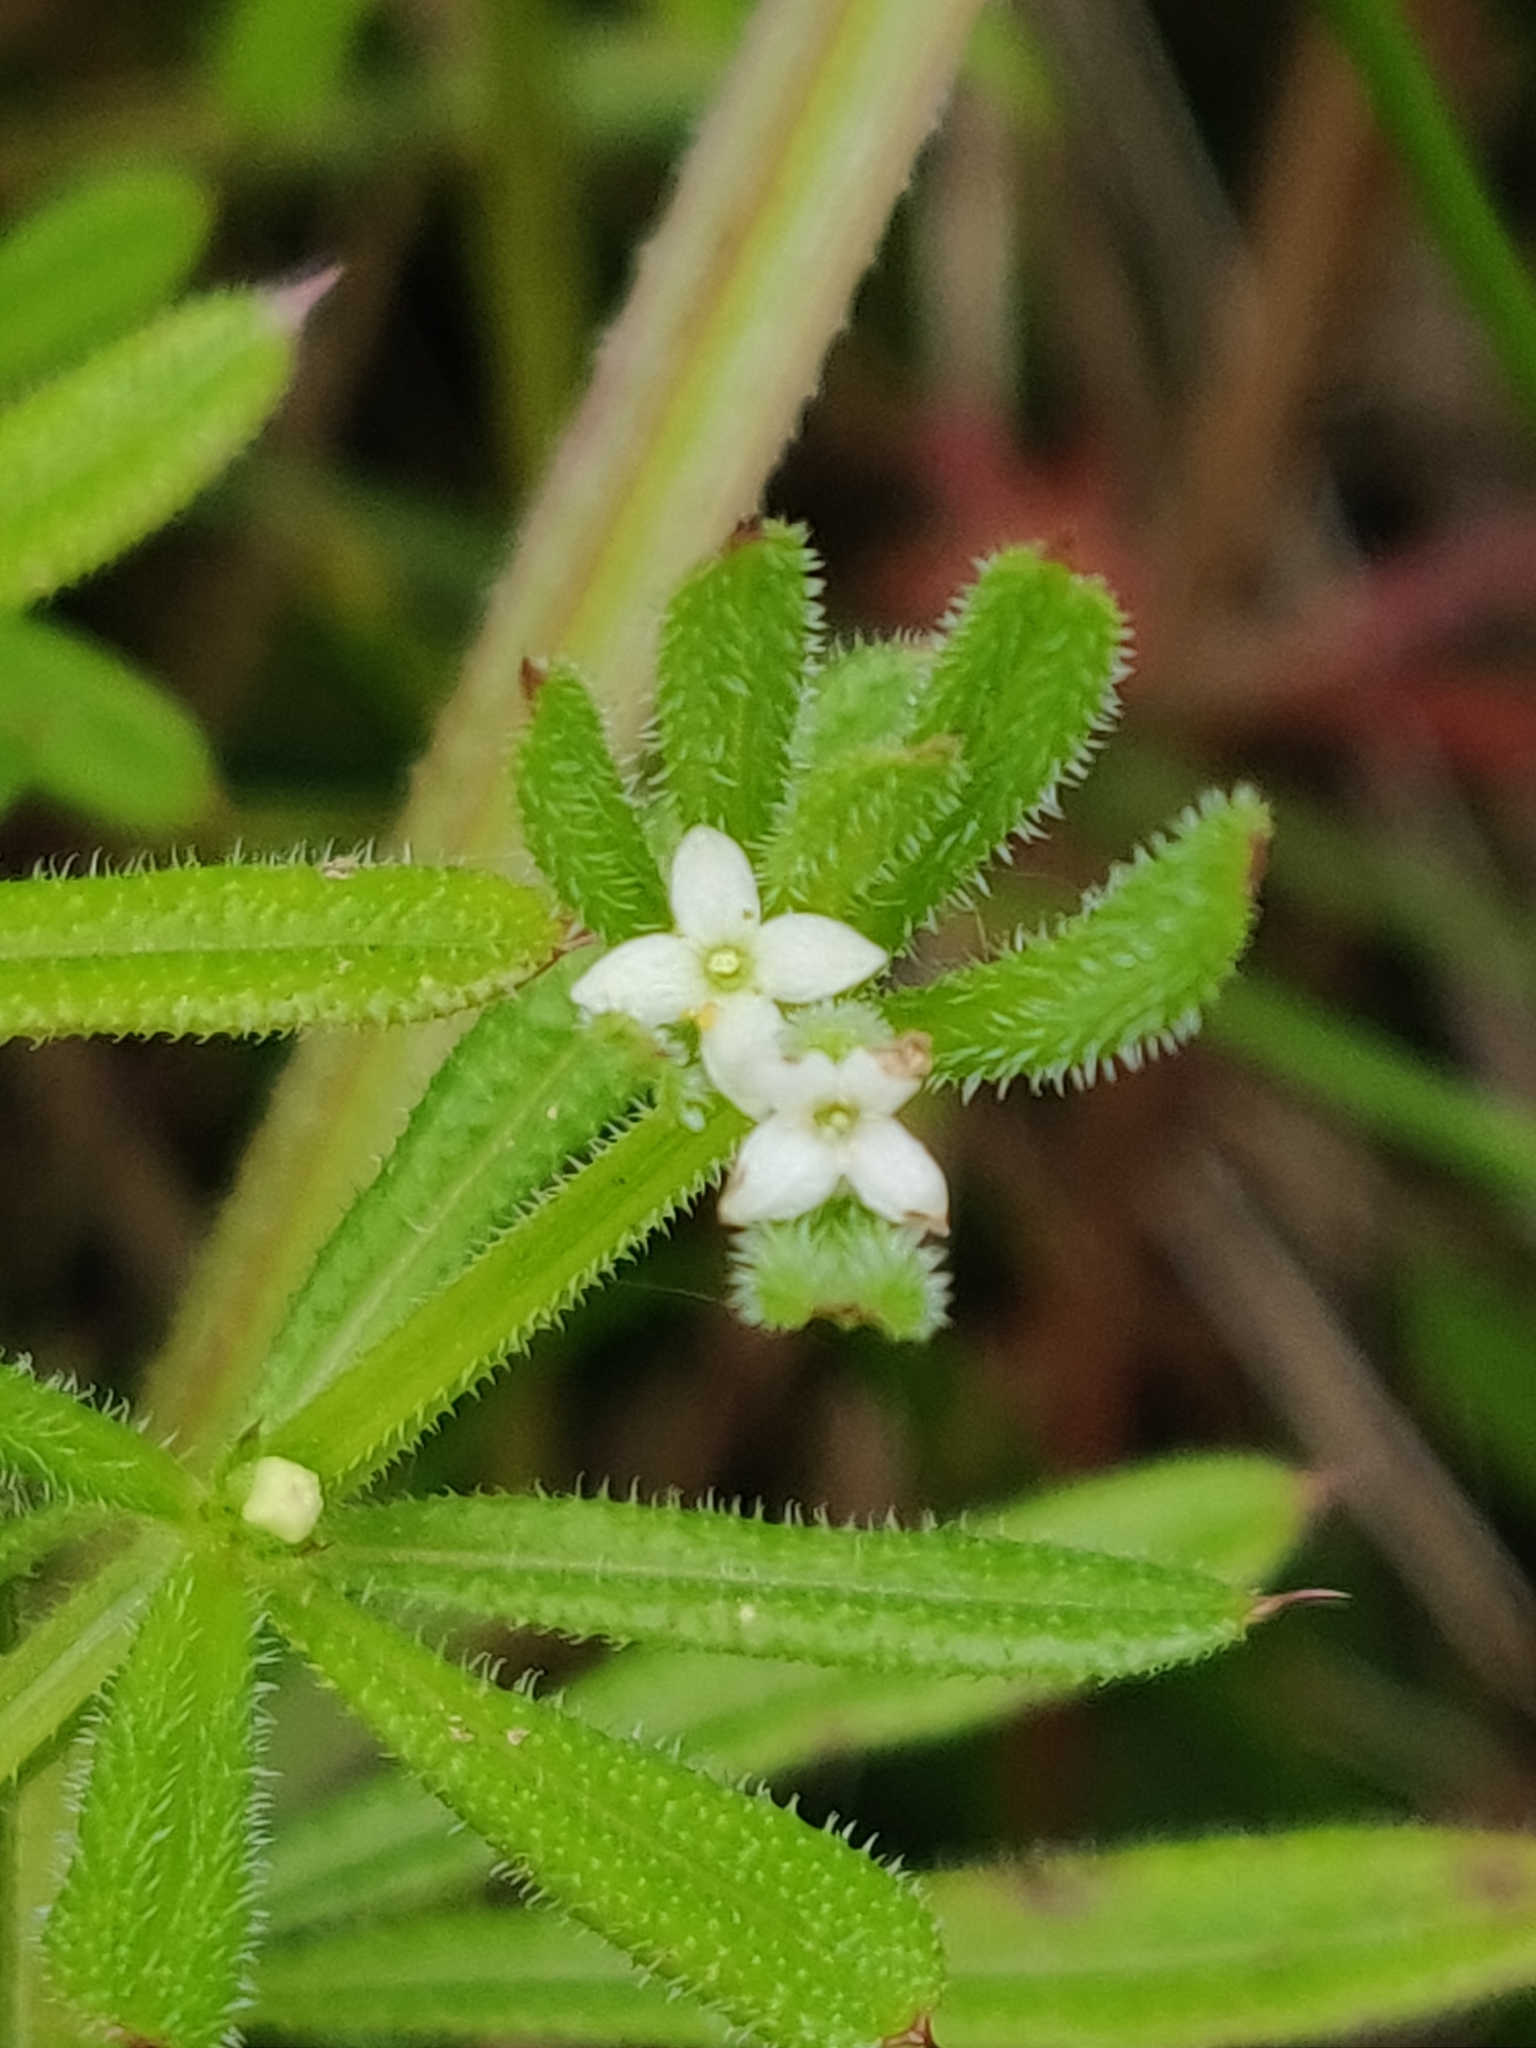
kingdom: Plantae
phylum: Tracheophyta
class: Magnoliopsida
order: Gentianales
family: Rubiaceae
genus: Galium
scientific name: Galium aparine
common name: Cleavers
